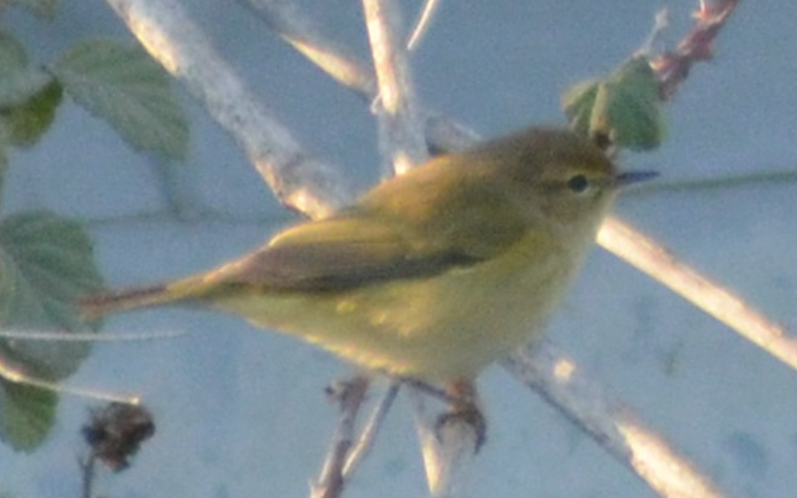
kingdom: Animalia
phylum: Chordata
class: Aves
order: Passeriformes
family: Phylloscopidae
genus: Phylloscopus
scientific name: Phylloscopus collybita
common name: Common chiffchaff
